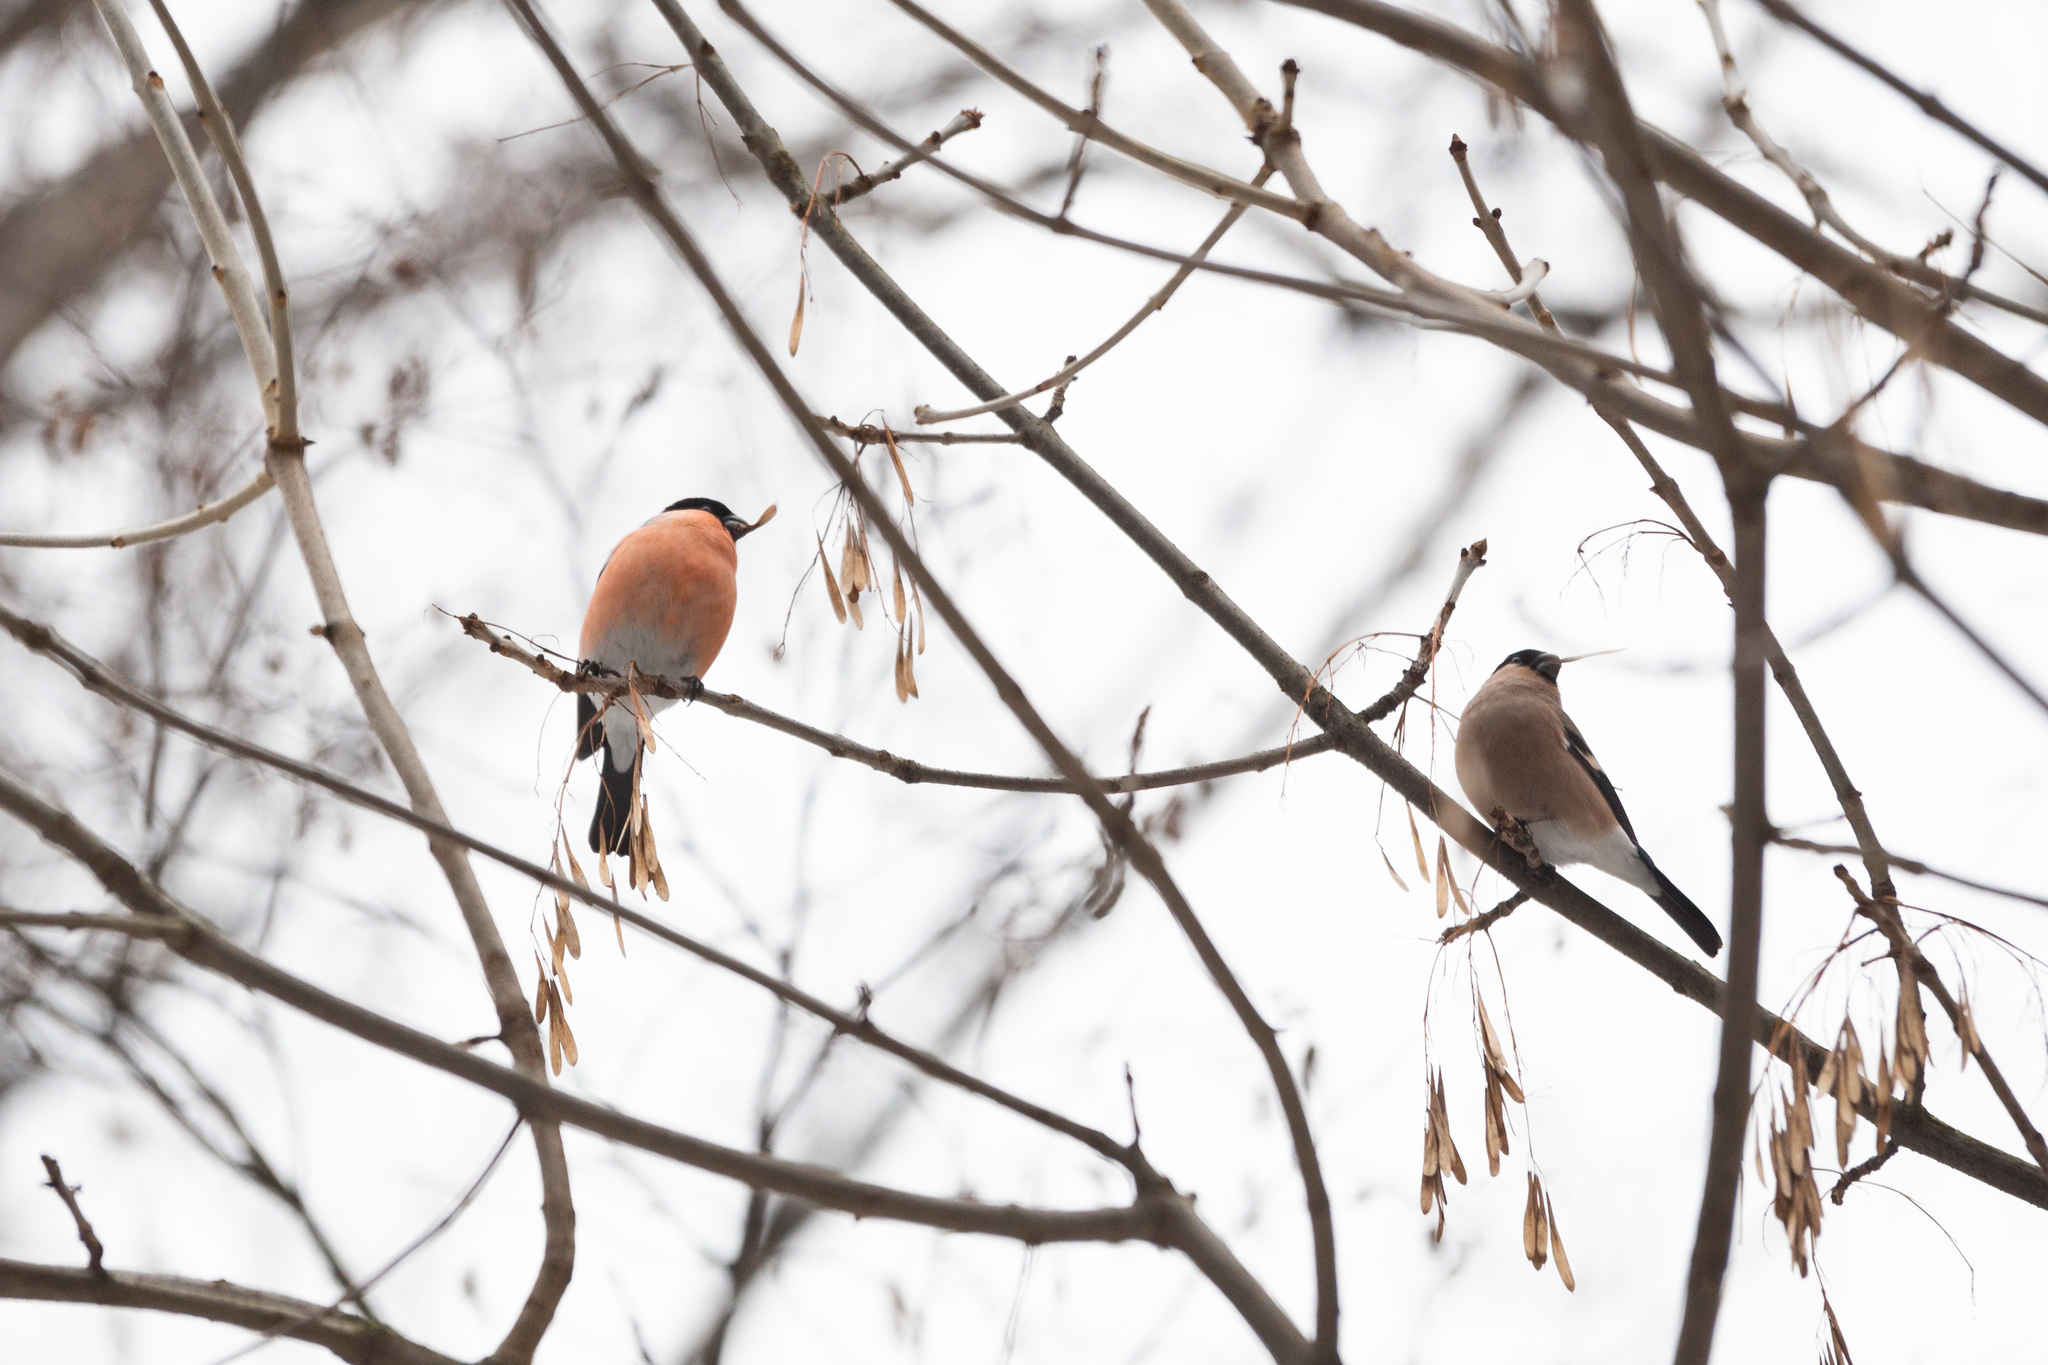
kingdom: Animalia
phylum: Chordata
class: Aves
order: Passeriformes
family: Fringillidae
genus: Pyrrhula
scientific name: Pyrrhula pyrrhula
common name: Eurasian bullfinch
